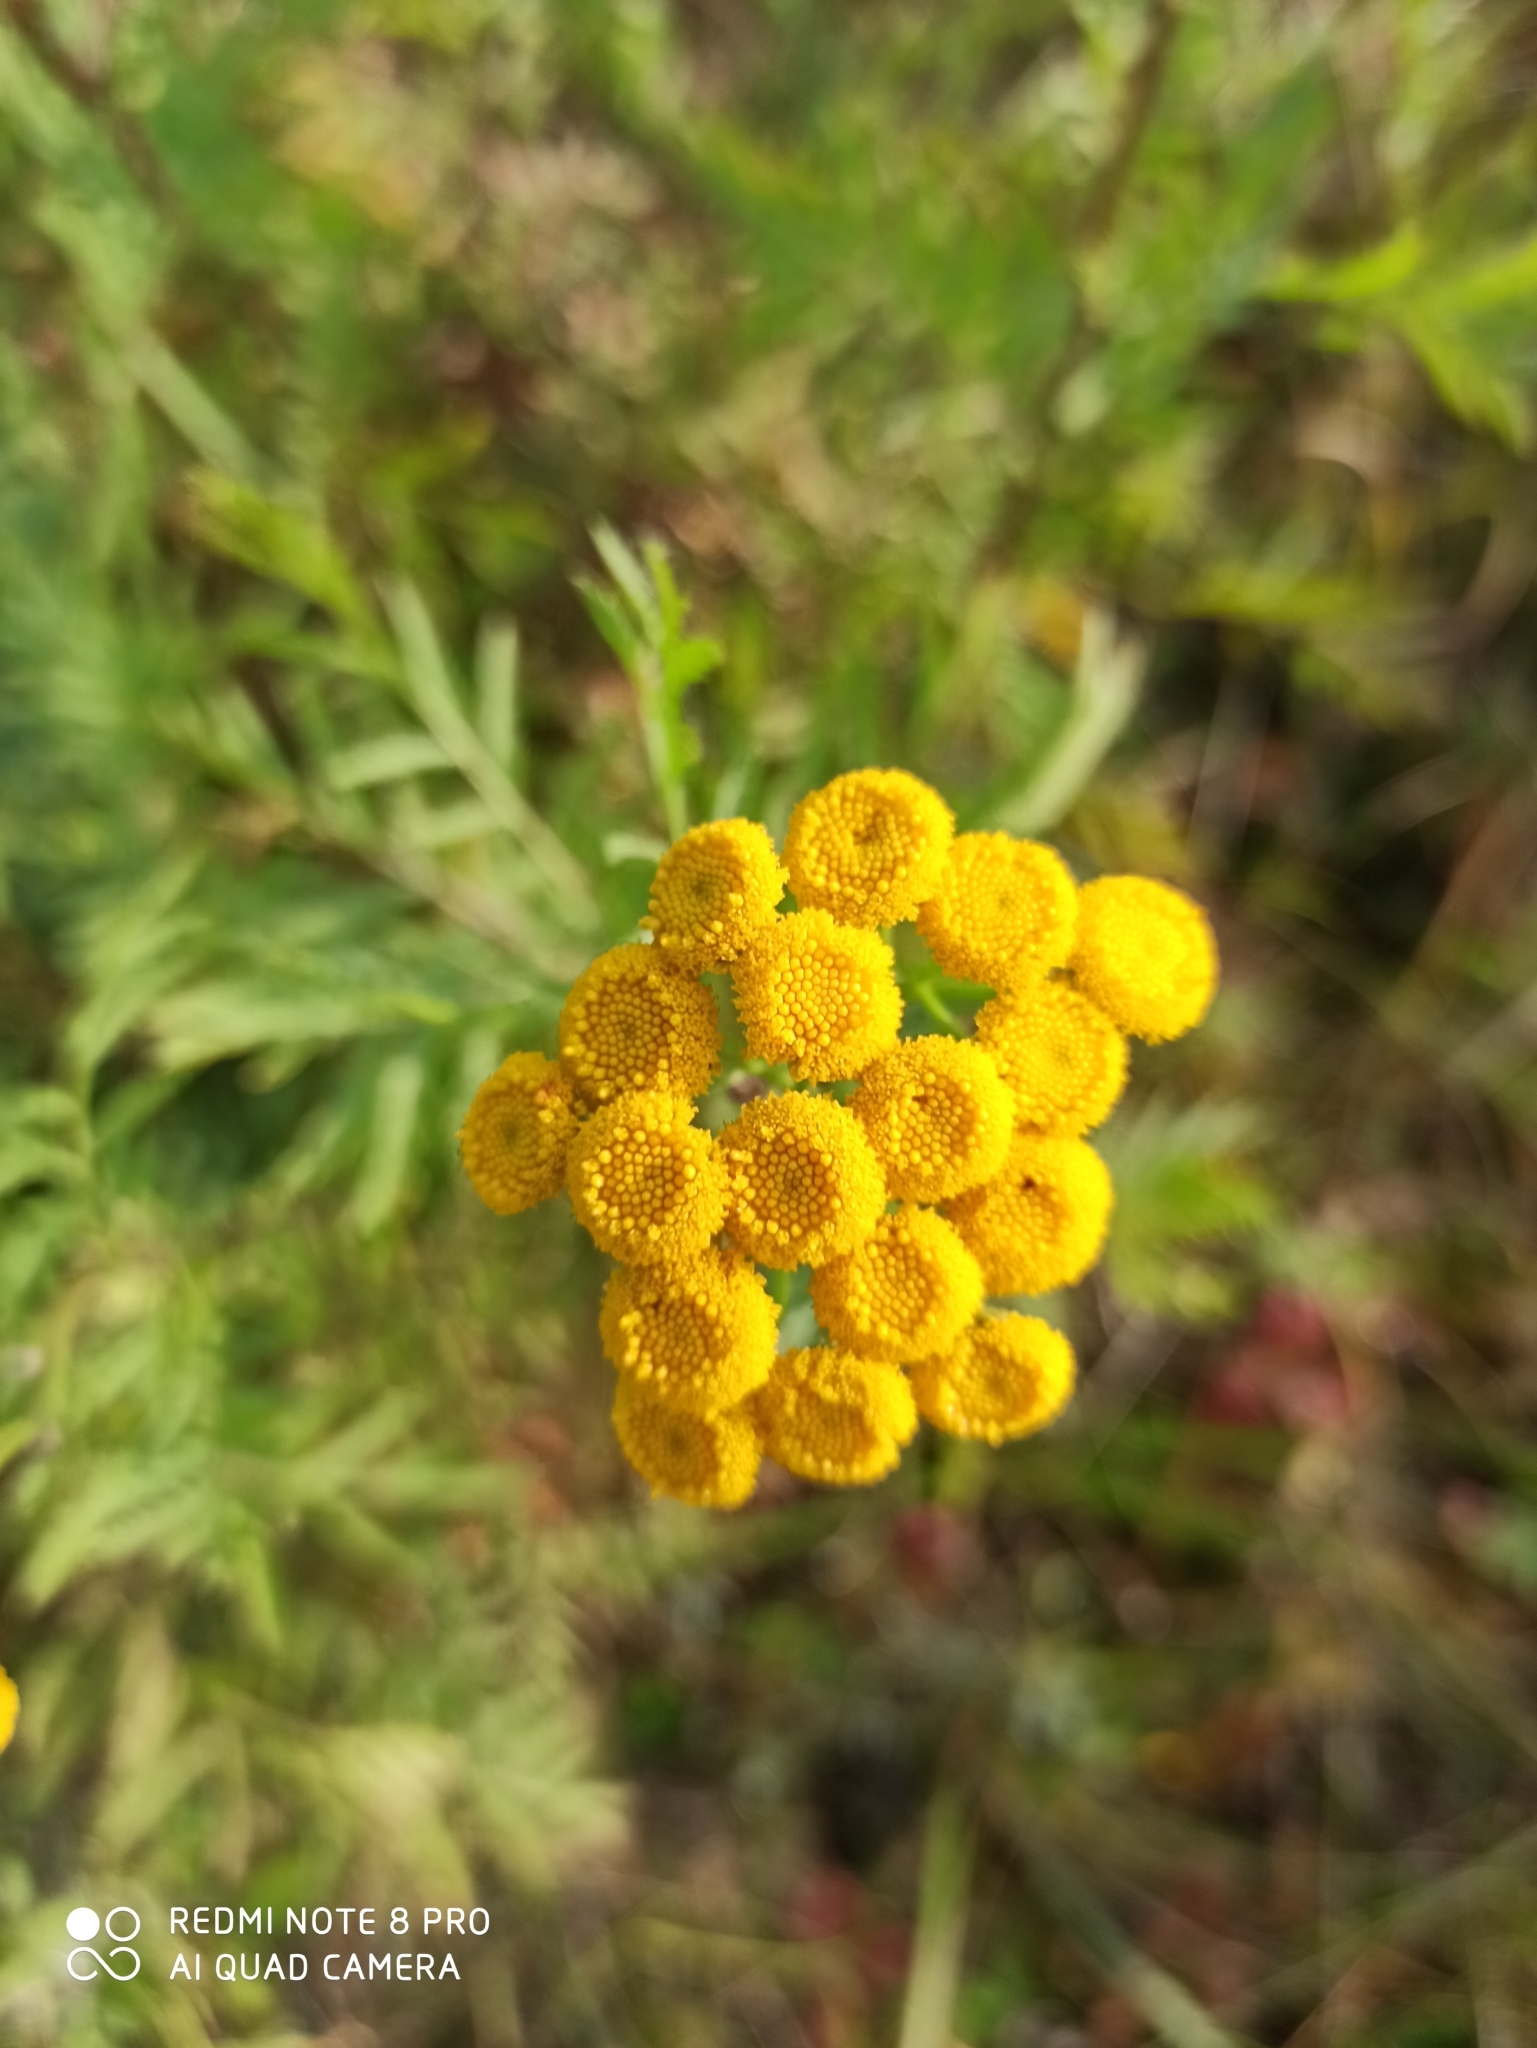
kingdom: Plantae
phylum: Tracheophyta
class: Magnoliopsida
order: Asterales
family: Asteraceae
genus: Tanacetum
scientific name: Tanacetum vulgare
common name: Common tansy
